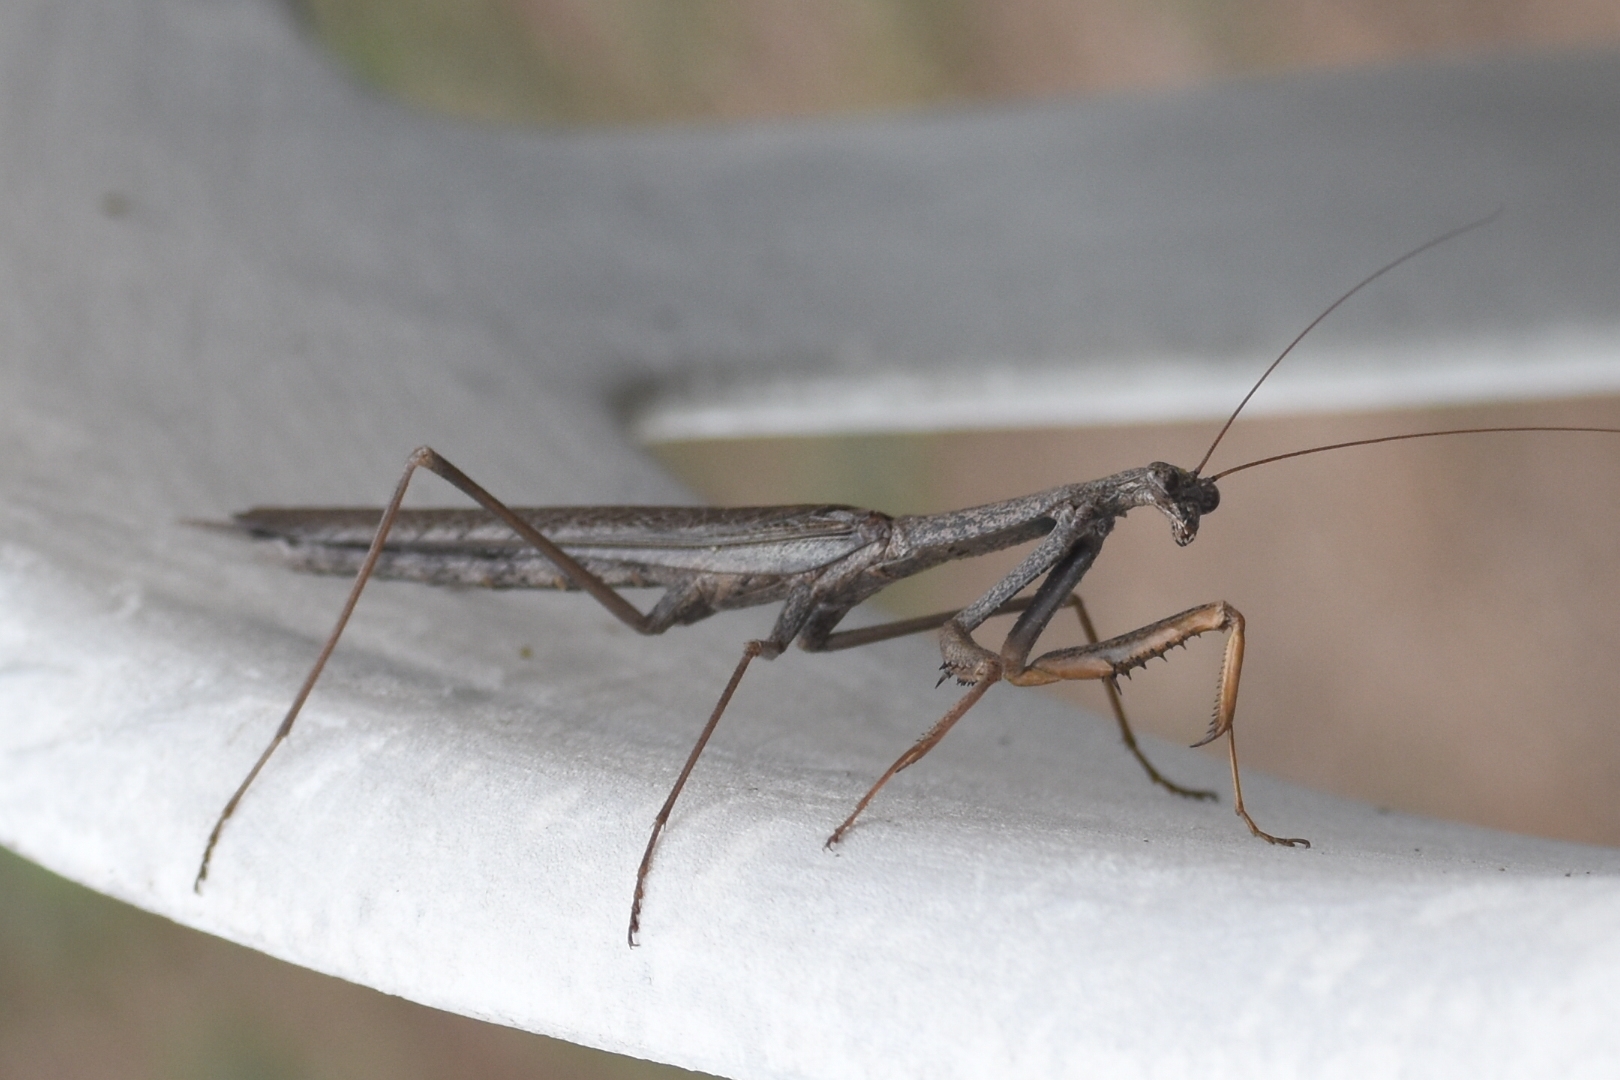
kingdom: Animalia
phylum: Arthropoda
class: Insecta
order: Mantodea
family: Coptopterygidae
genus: Coptopteryx
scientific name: Coptopteryx gayi
